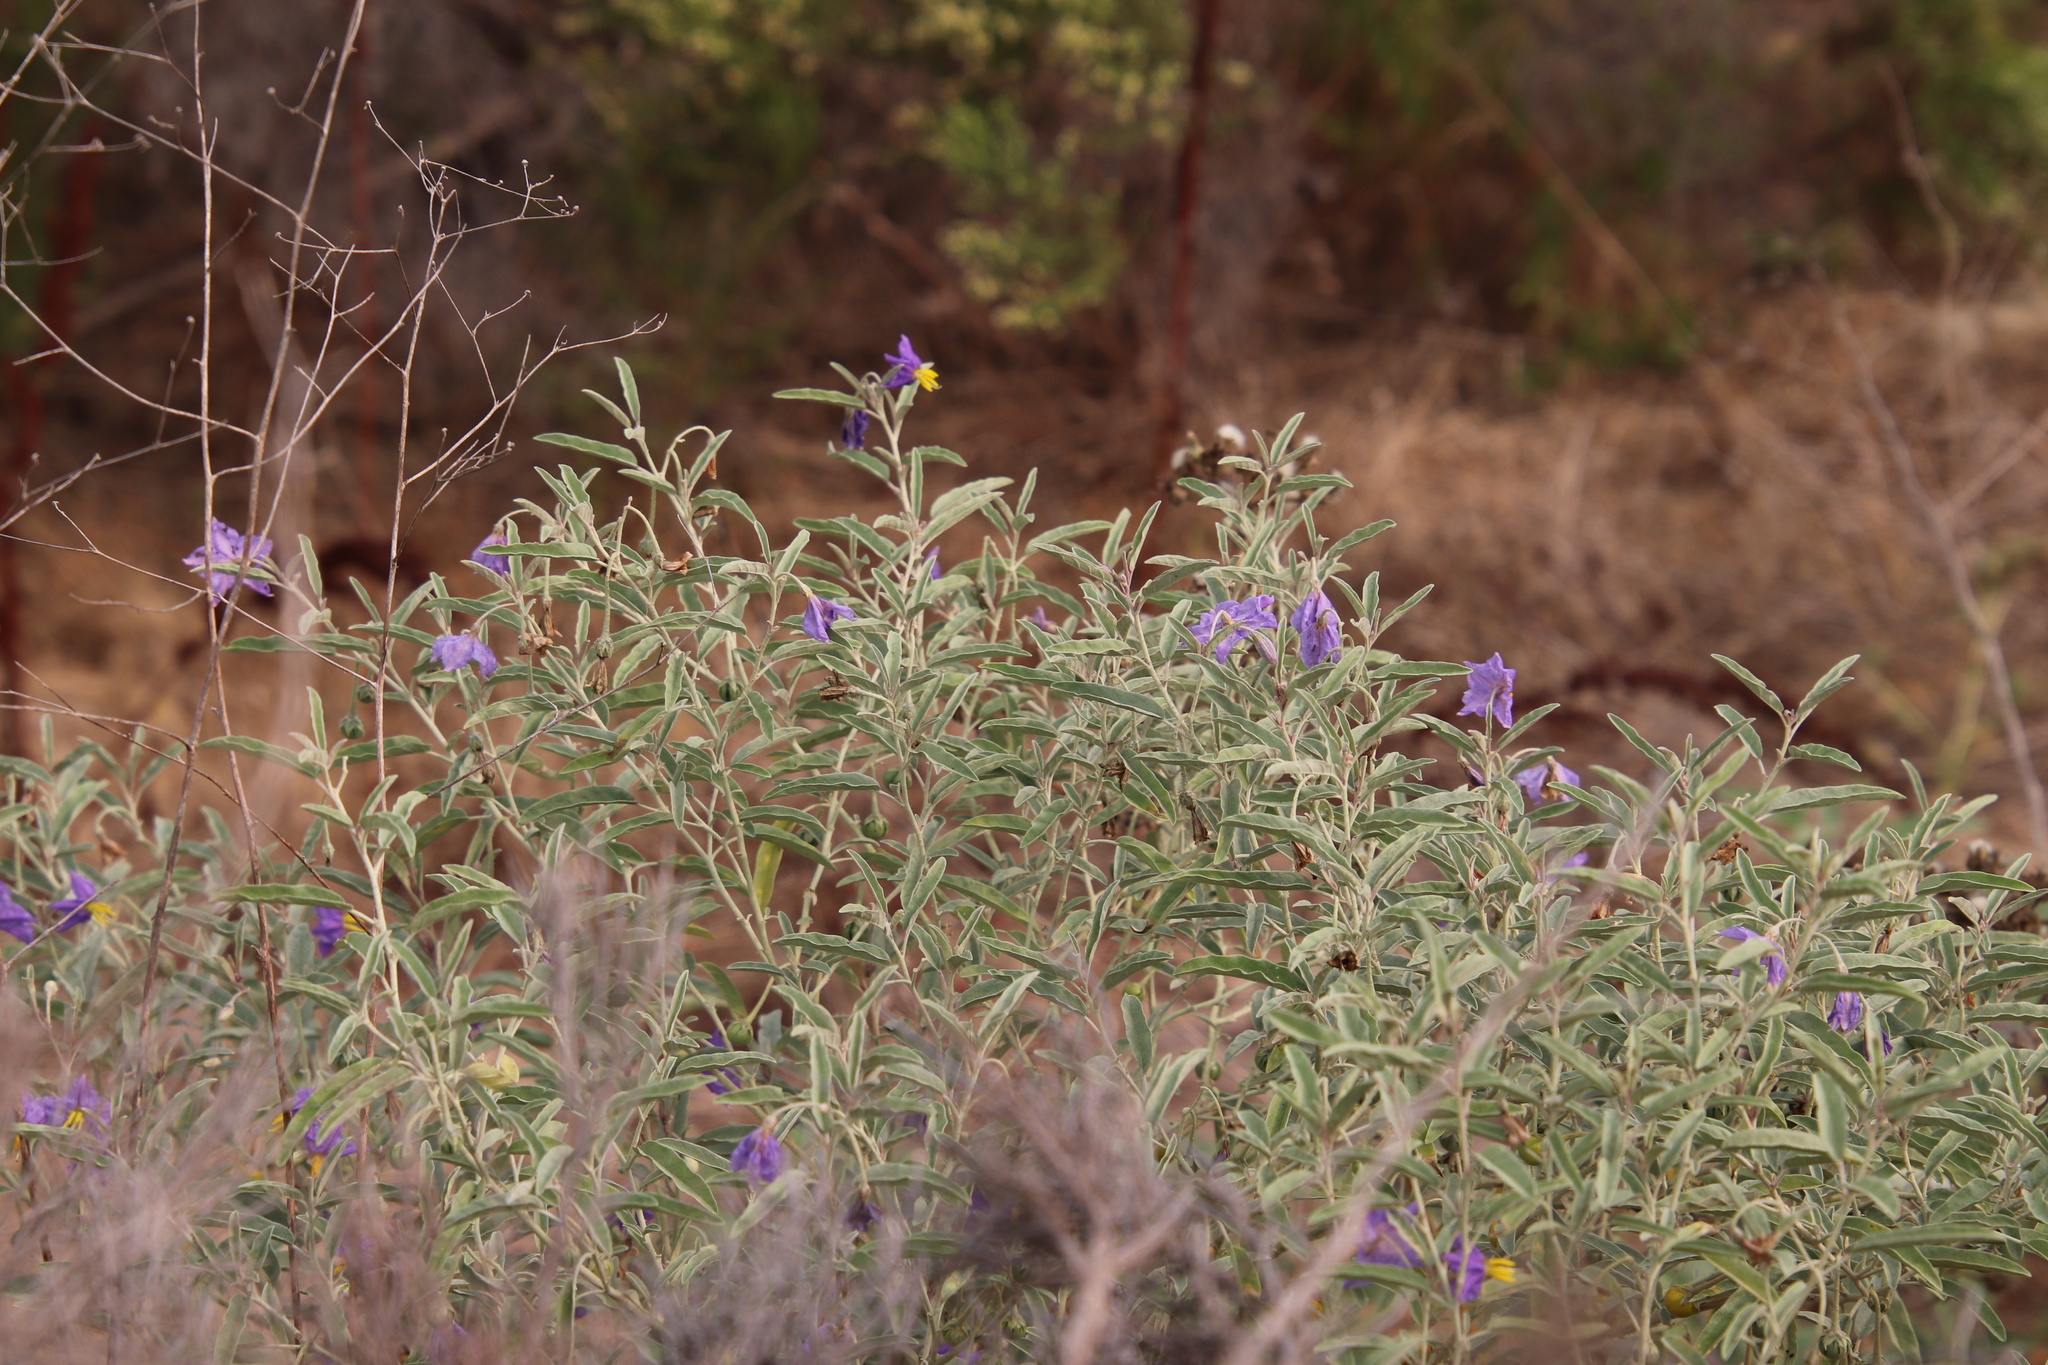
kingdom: Plantae
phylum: Tracheophyta
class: Magnoliopsida
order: Solanales
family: Solanaceae
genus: Solanum
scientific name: Solanum elaeagnifolium
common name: Silverleaf nightshade
